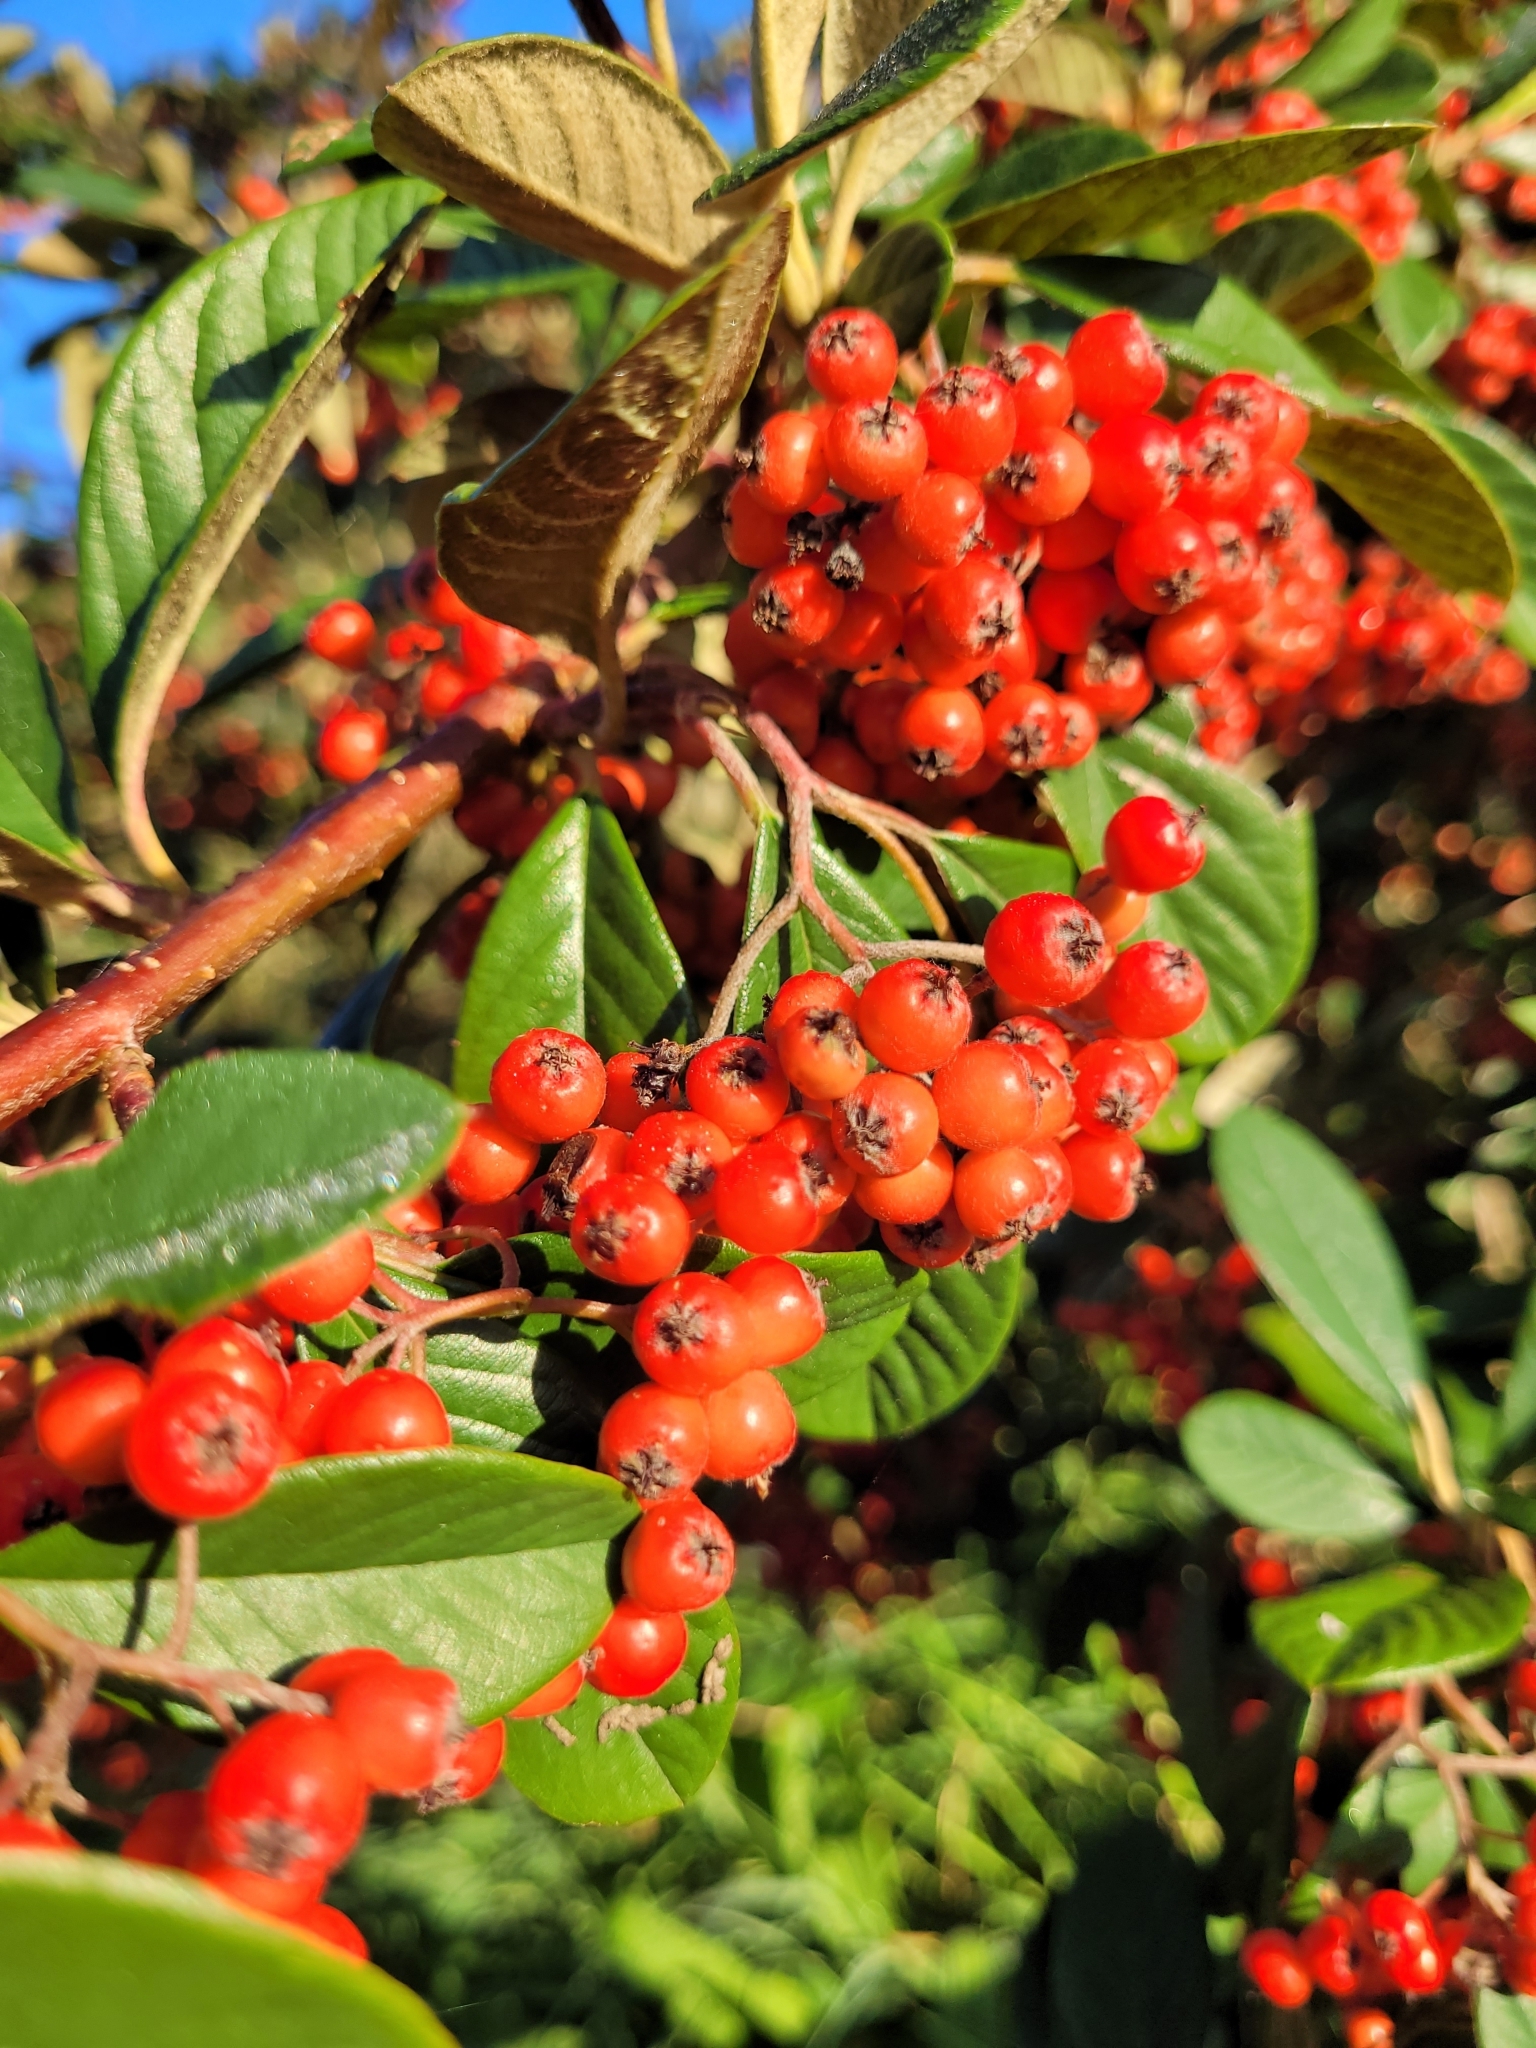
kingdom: Plantae
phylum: Tracheophyta
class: Magnoliopsida
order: Rosales
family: Rosaceae
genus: Cotoneaster
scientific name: Cotoneaster coriaceus
